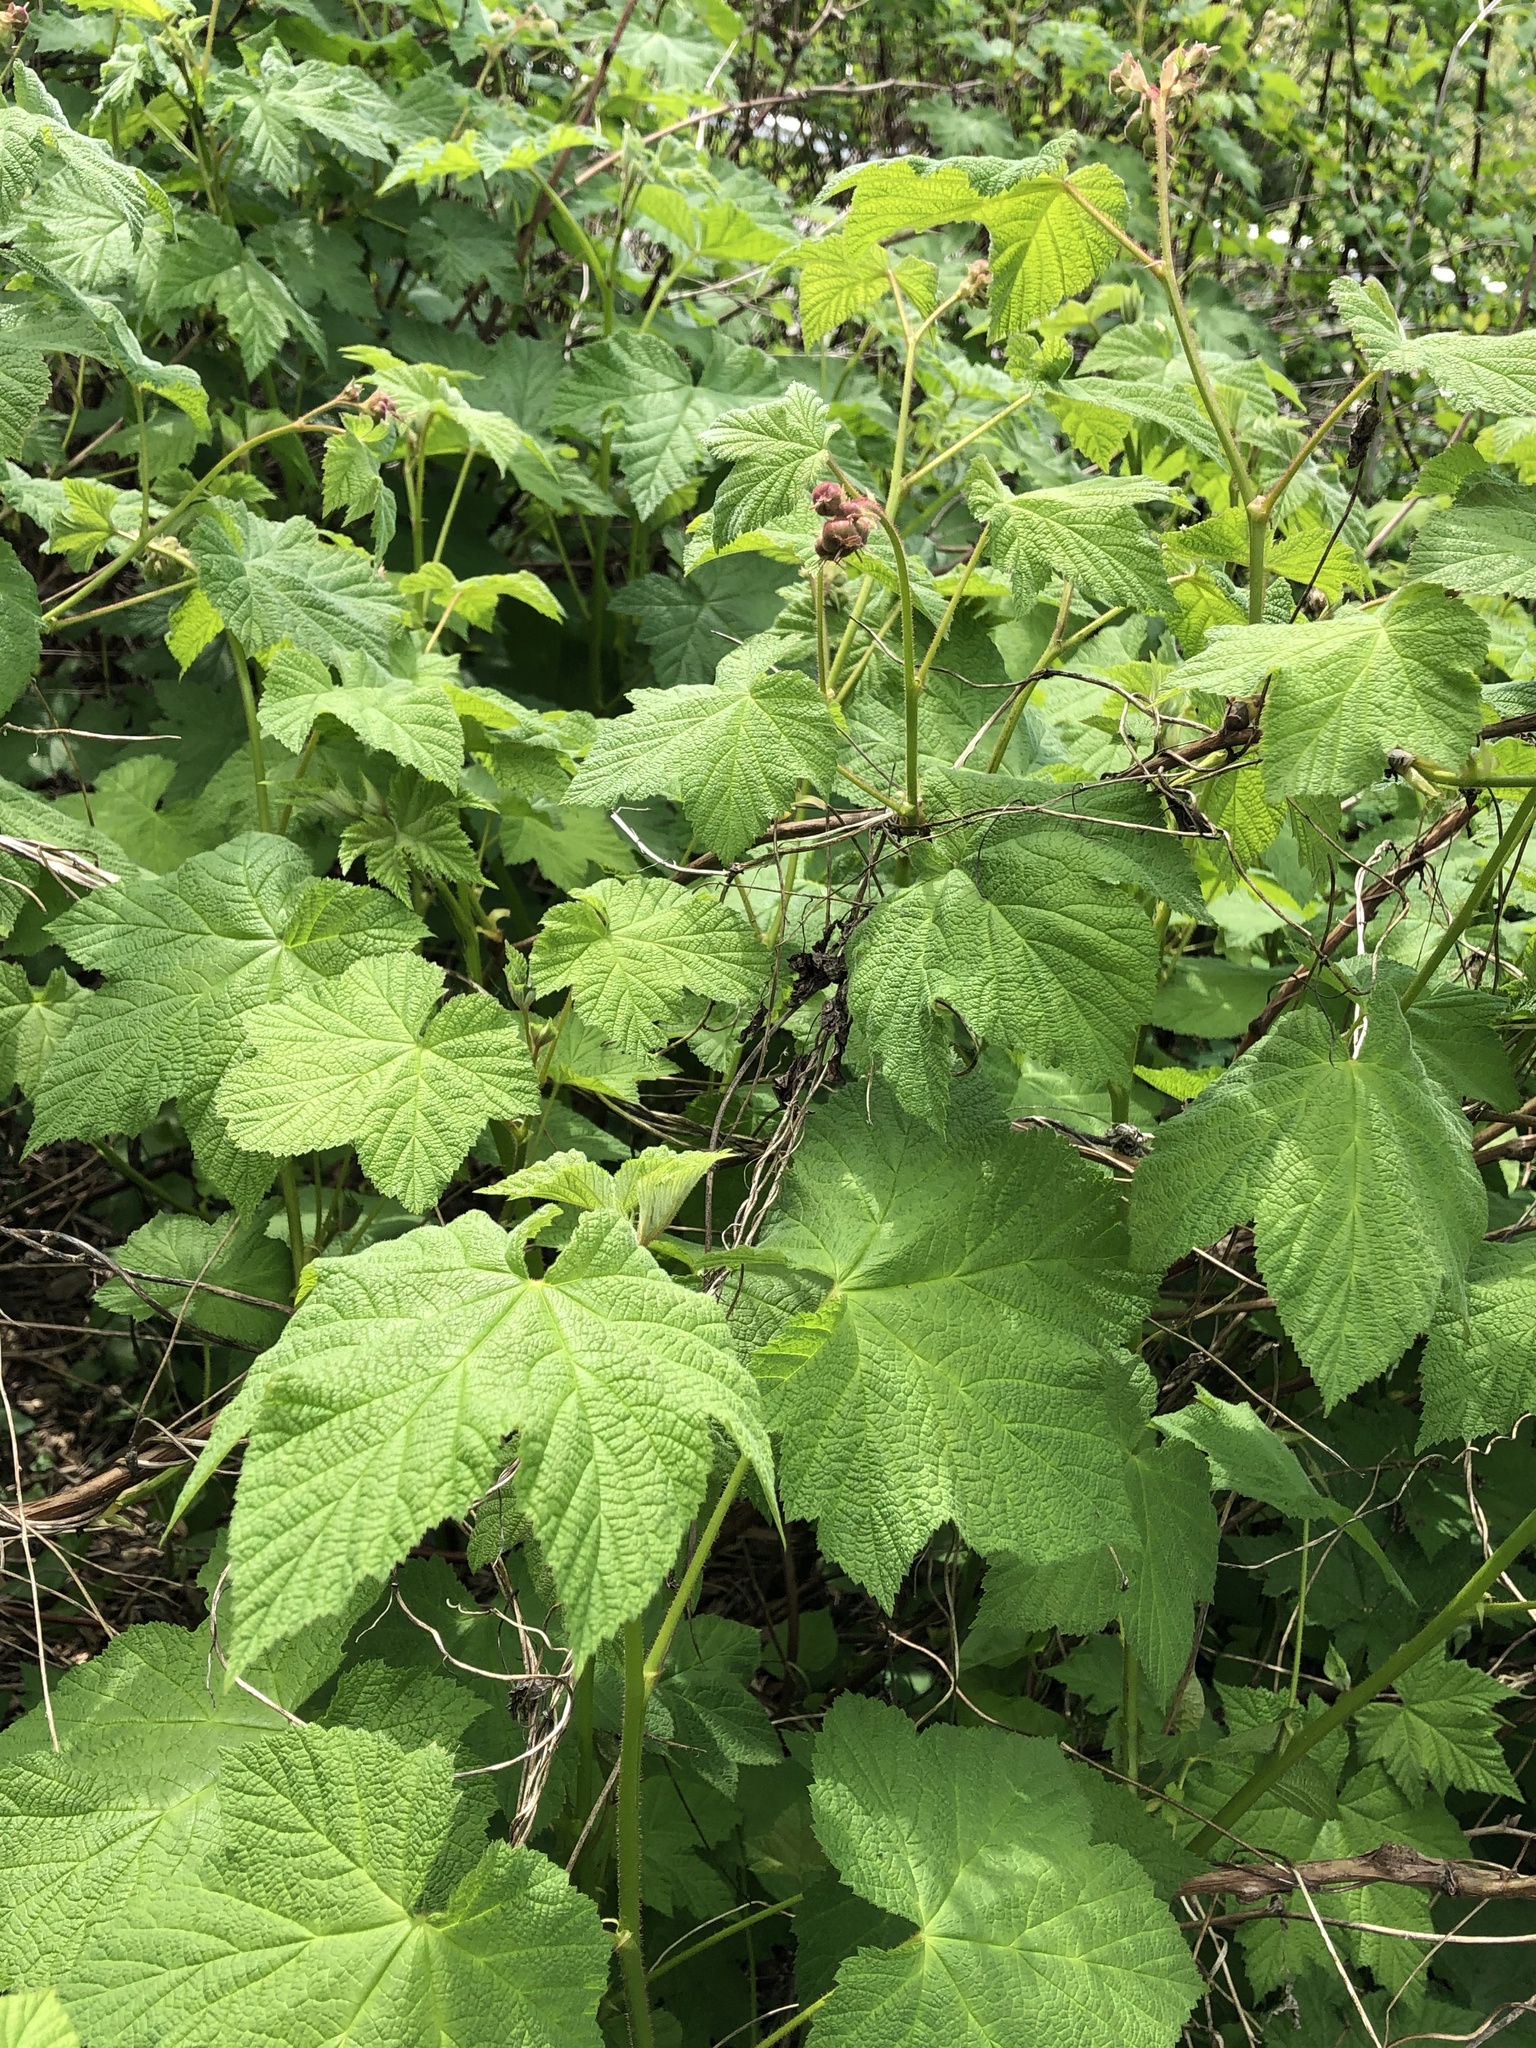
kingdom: Plantae
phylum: Tracheophyta
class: Magnoliopsida
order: Rosales
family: Rosaceae
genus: Rubus
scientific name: Rubus parviflorus
